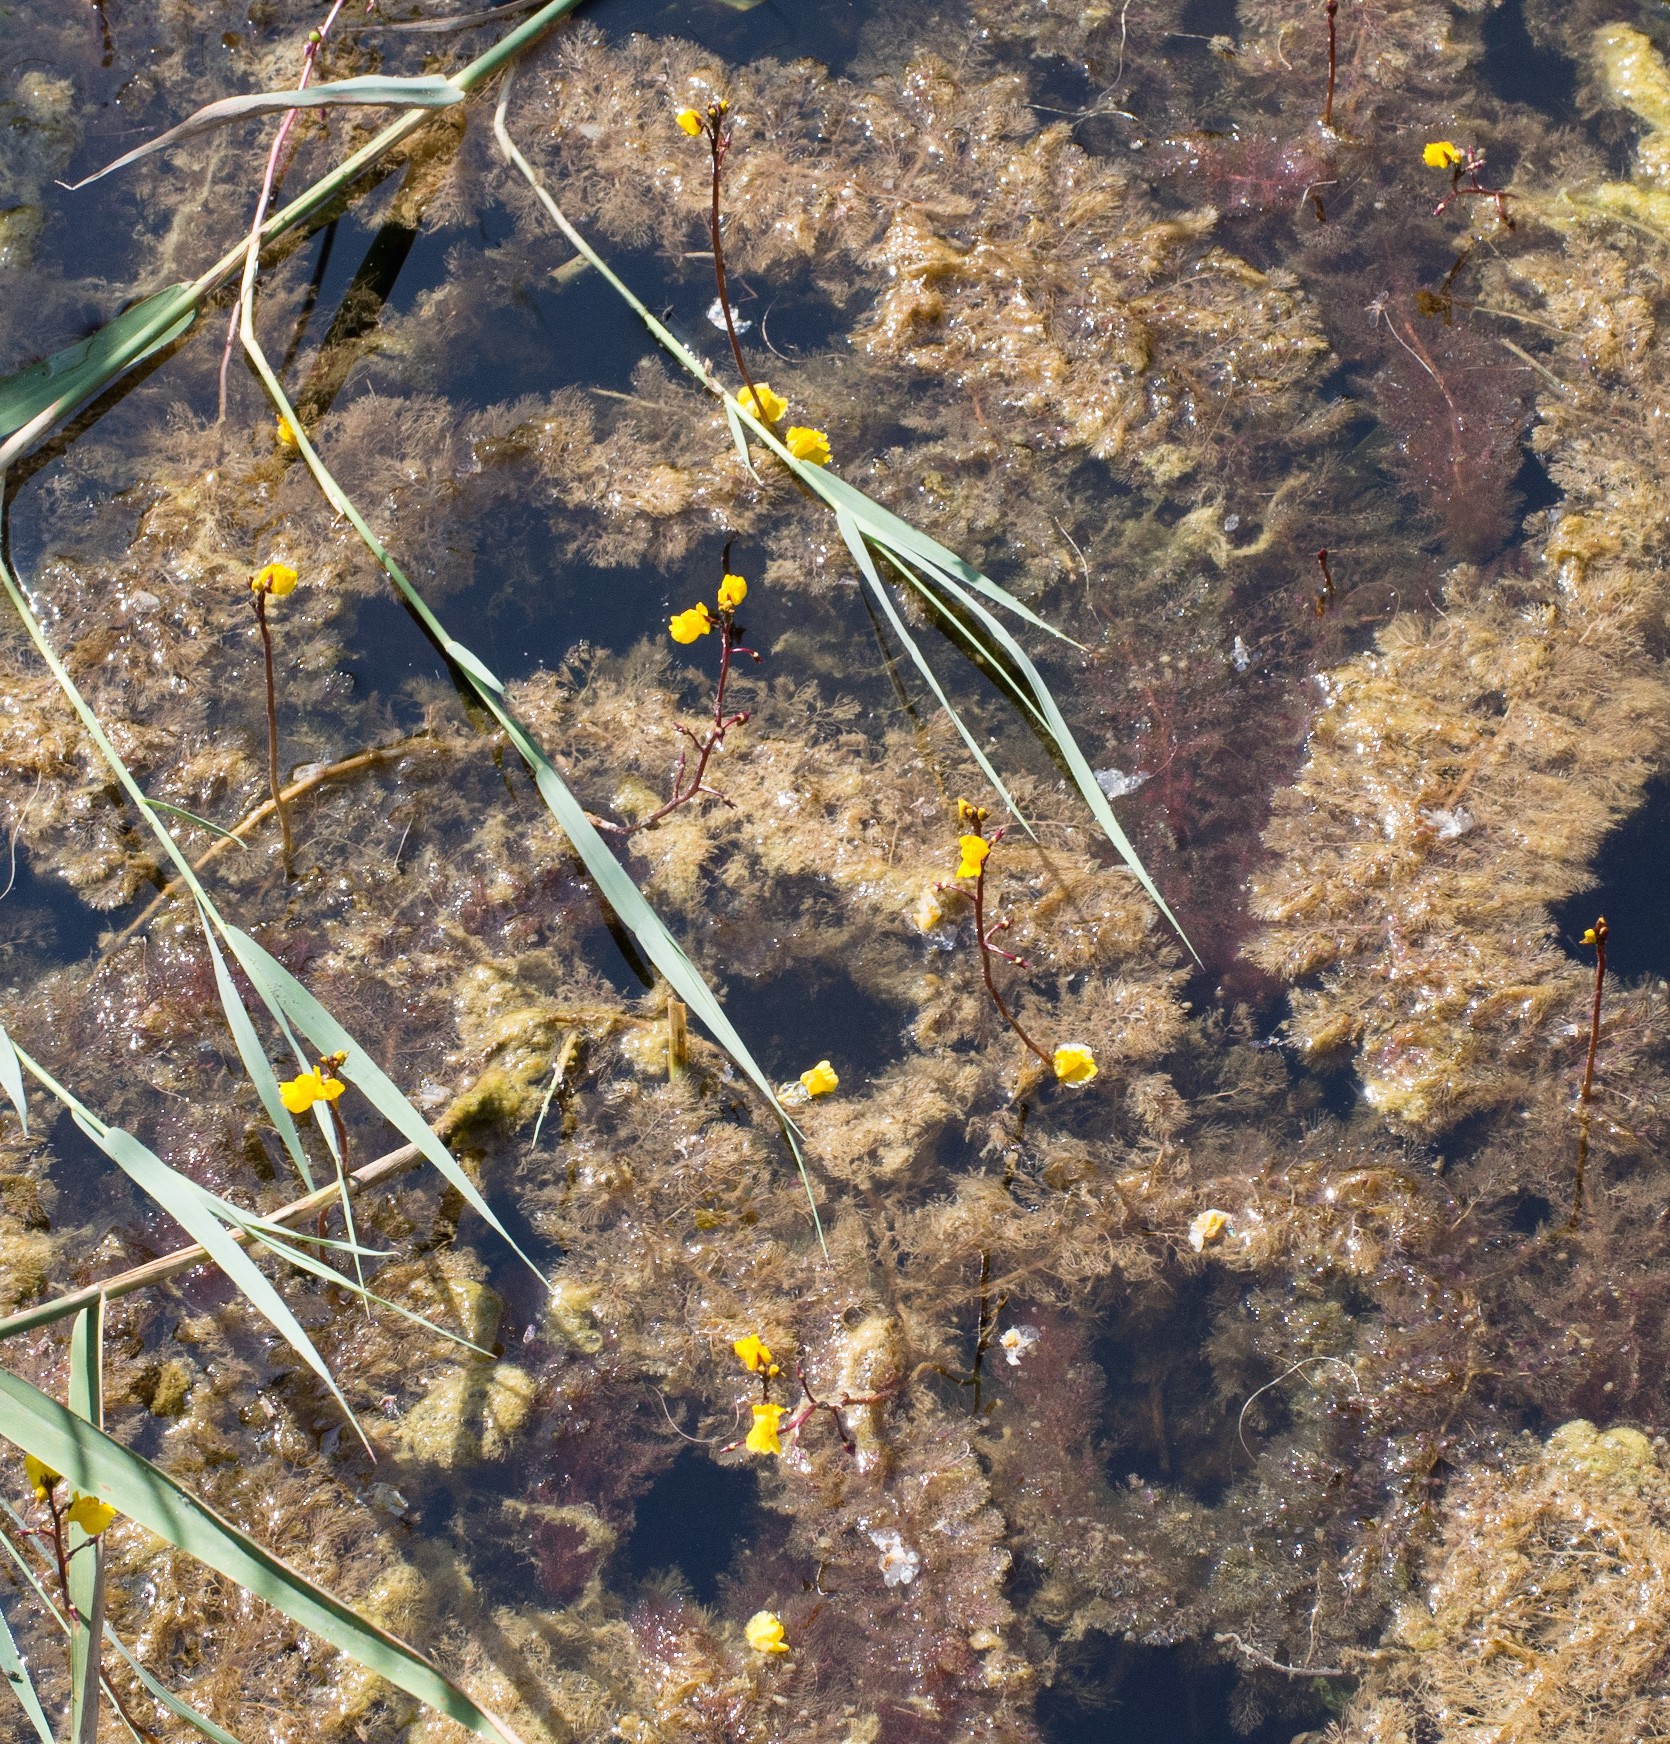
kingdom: Plantae
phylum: Tracheophyta
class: Magnoliopsida
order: Lamiales
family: Lentibulariaceae
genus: Utricularia
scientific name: Utricularia vulgaris
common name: Greater bladderwort
